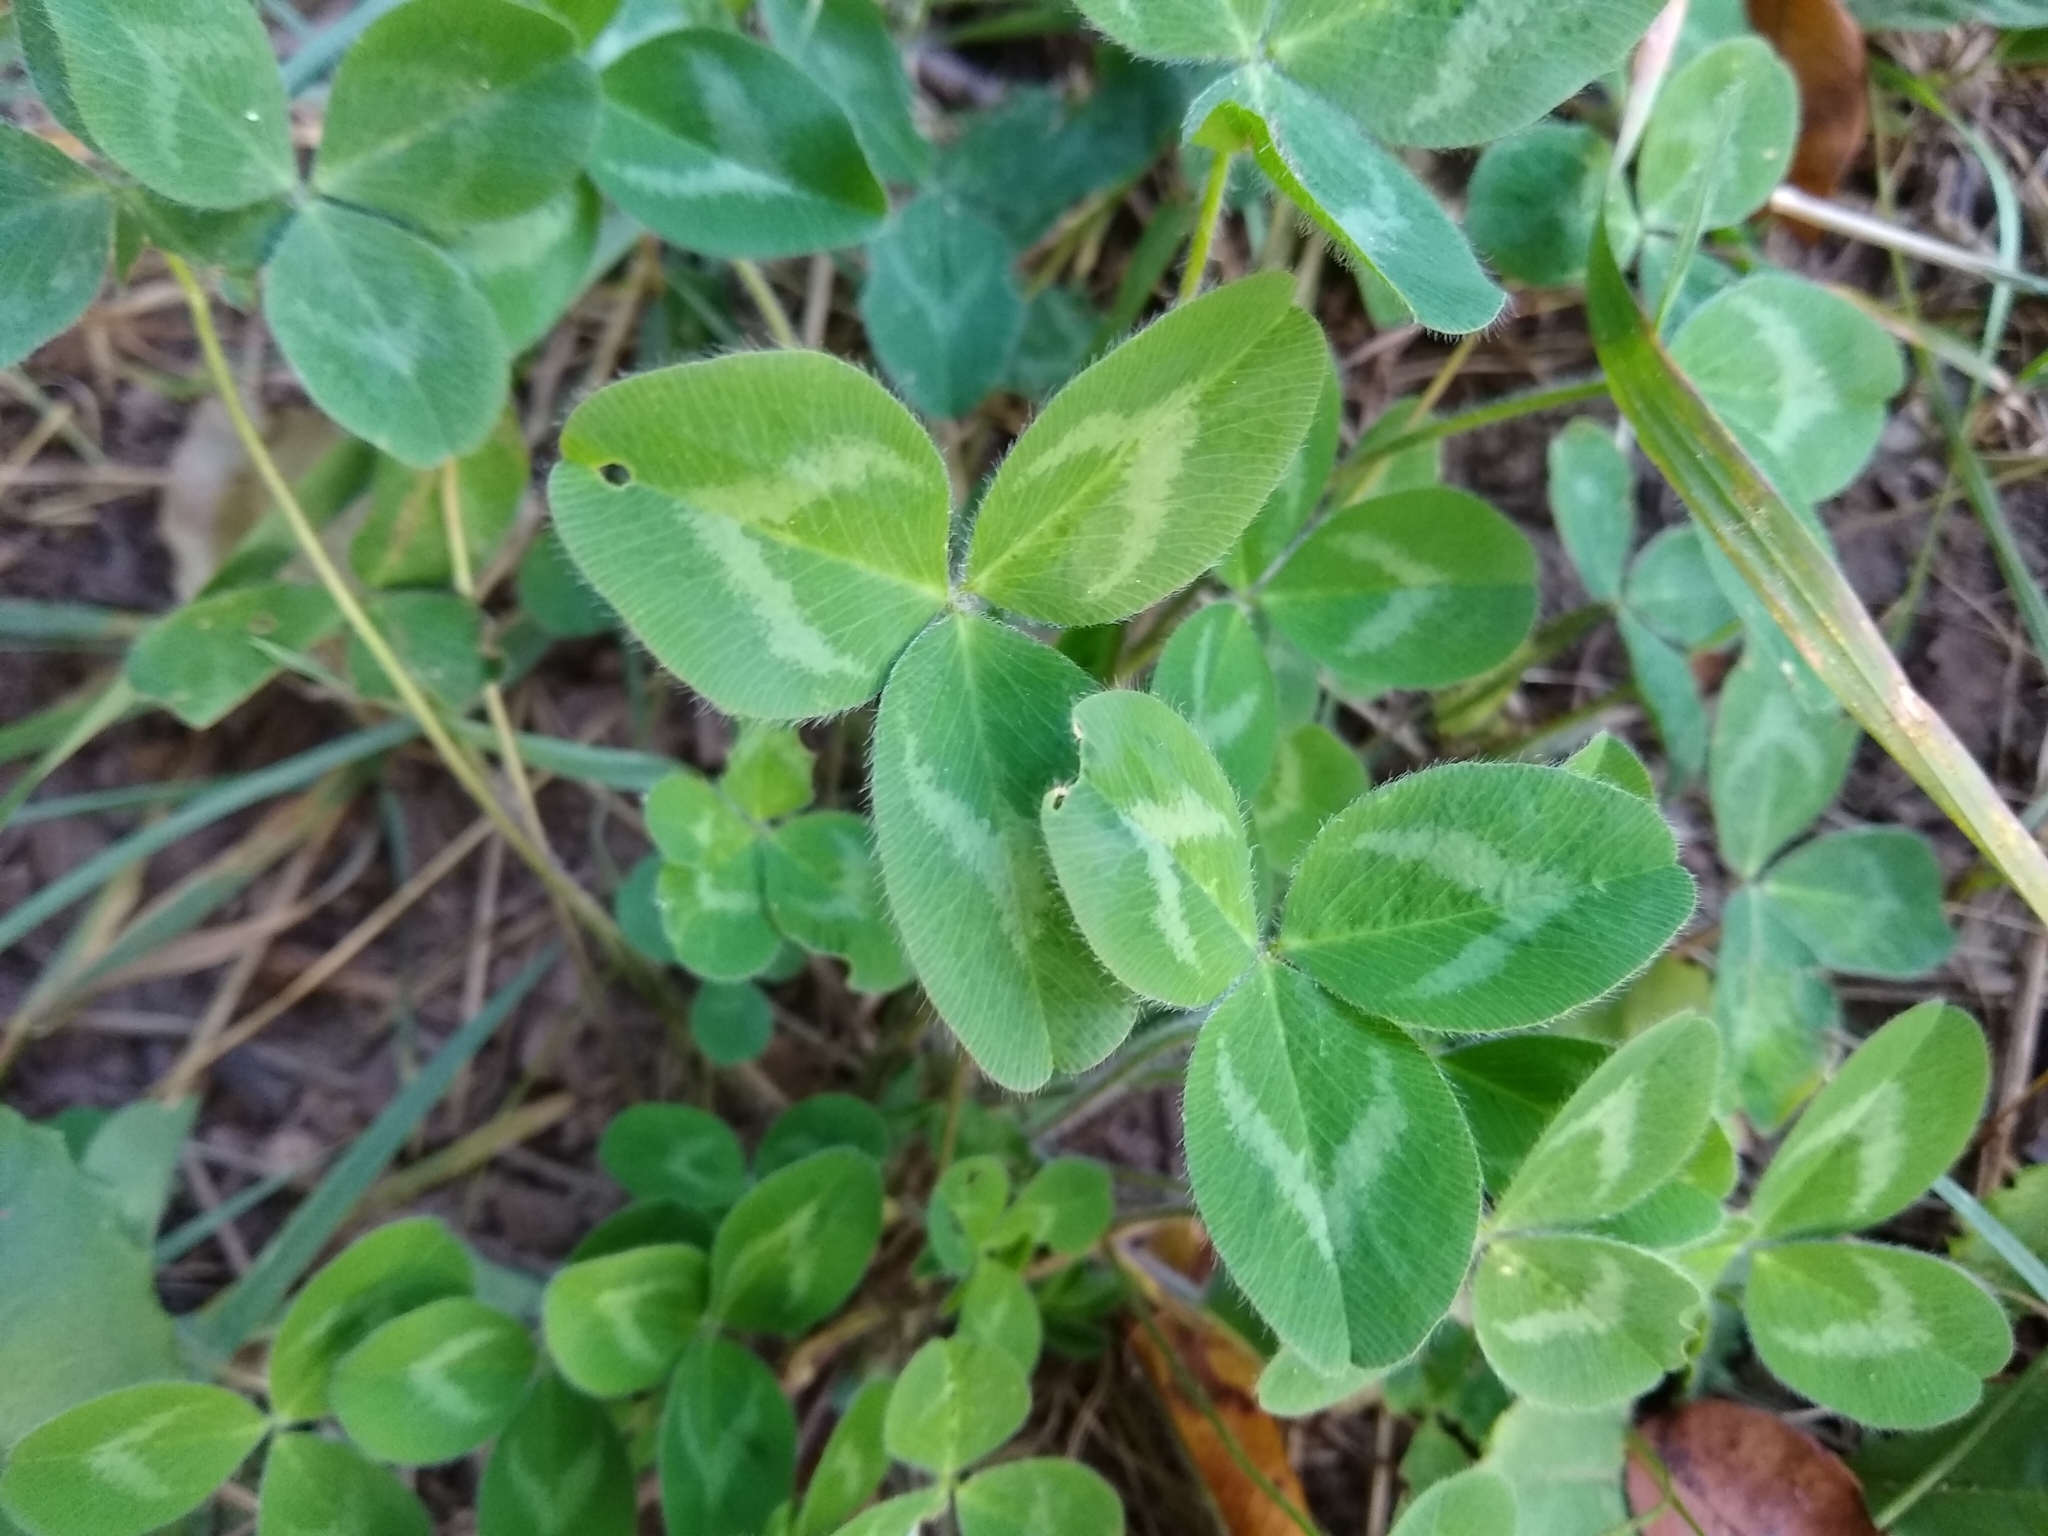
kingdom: Plantae
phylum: Tracheophyta
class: Magnoliopsida
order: Fabales
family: Fabaceae
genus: Trifolium
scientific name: Trifolium pratense
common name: Red clover
